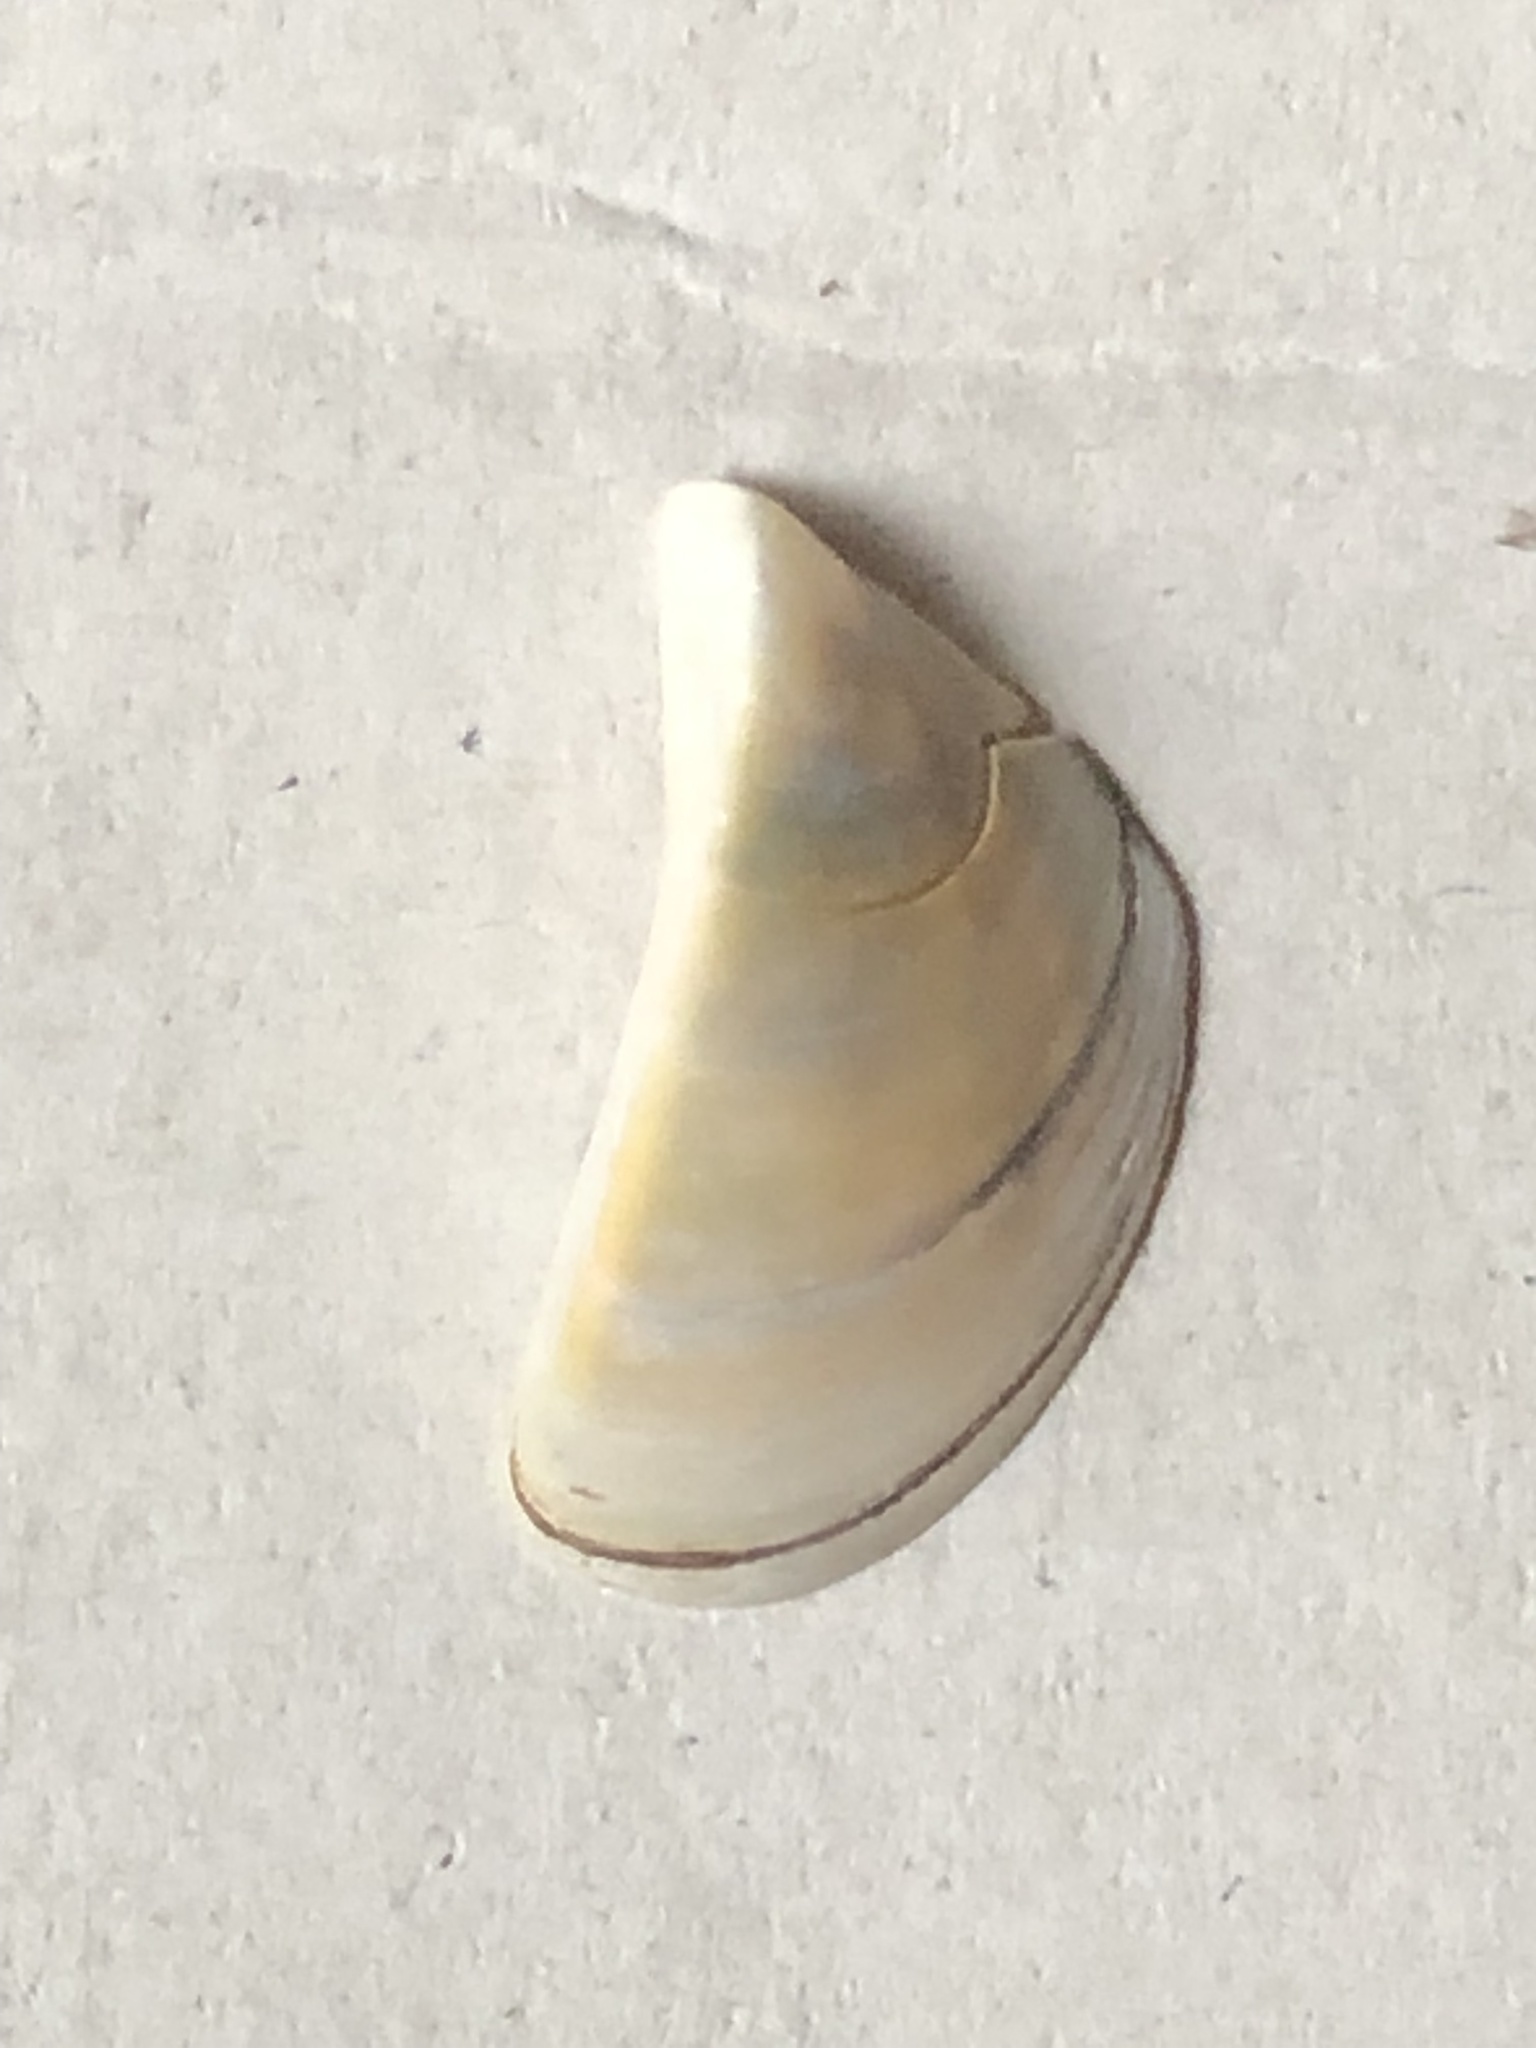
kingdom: Animalia
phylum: Mollusca
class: Bivalvia
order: Myida
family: Dreissenidae
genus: Dreissena
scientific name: Dreissena polymorpha
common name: Zebra mussel
